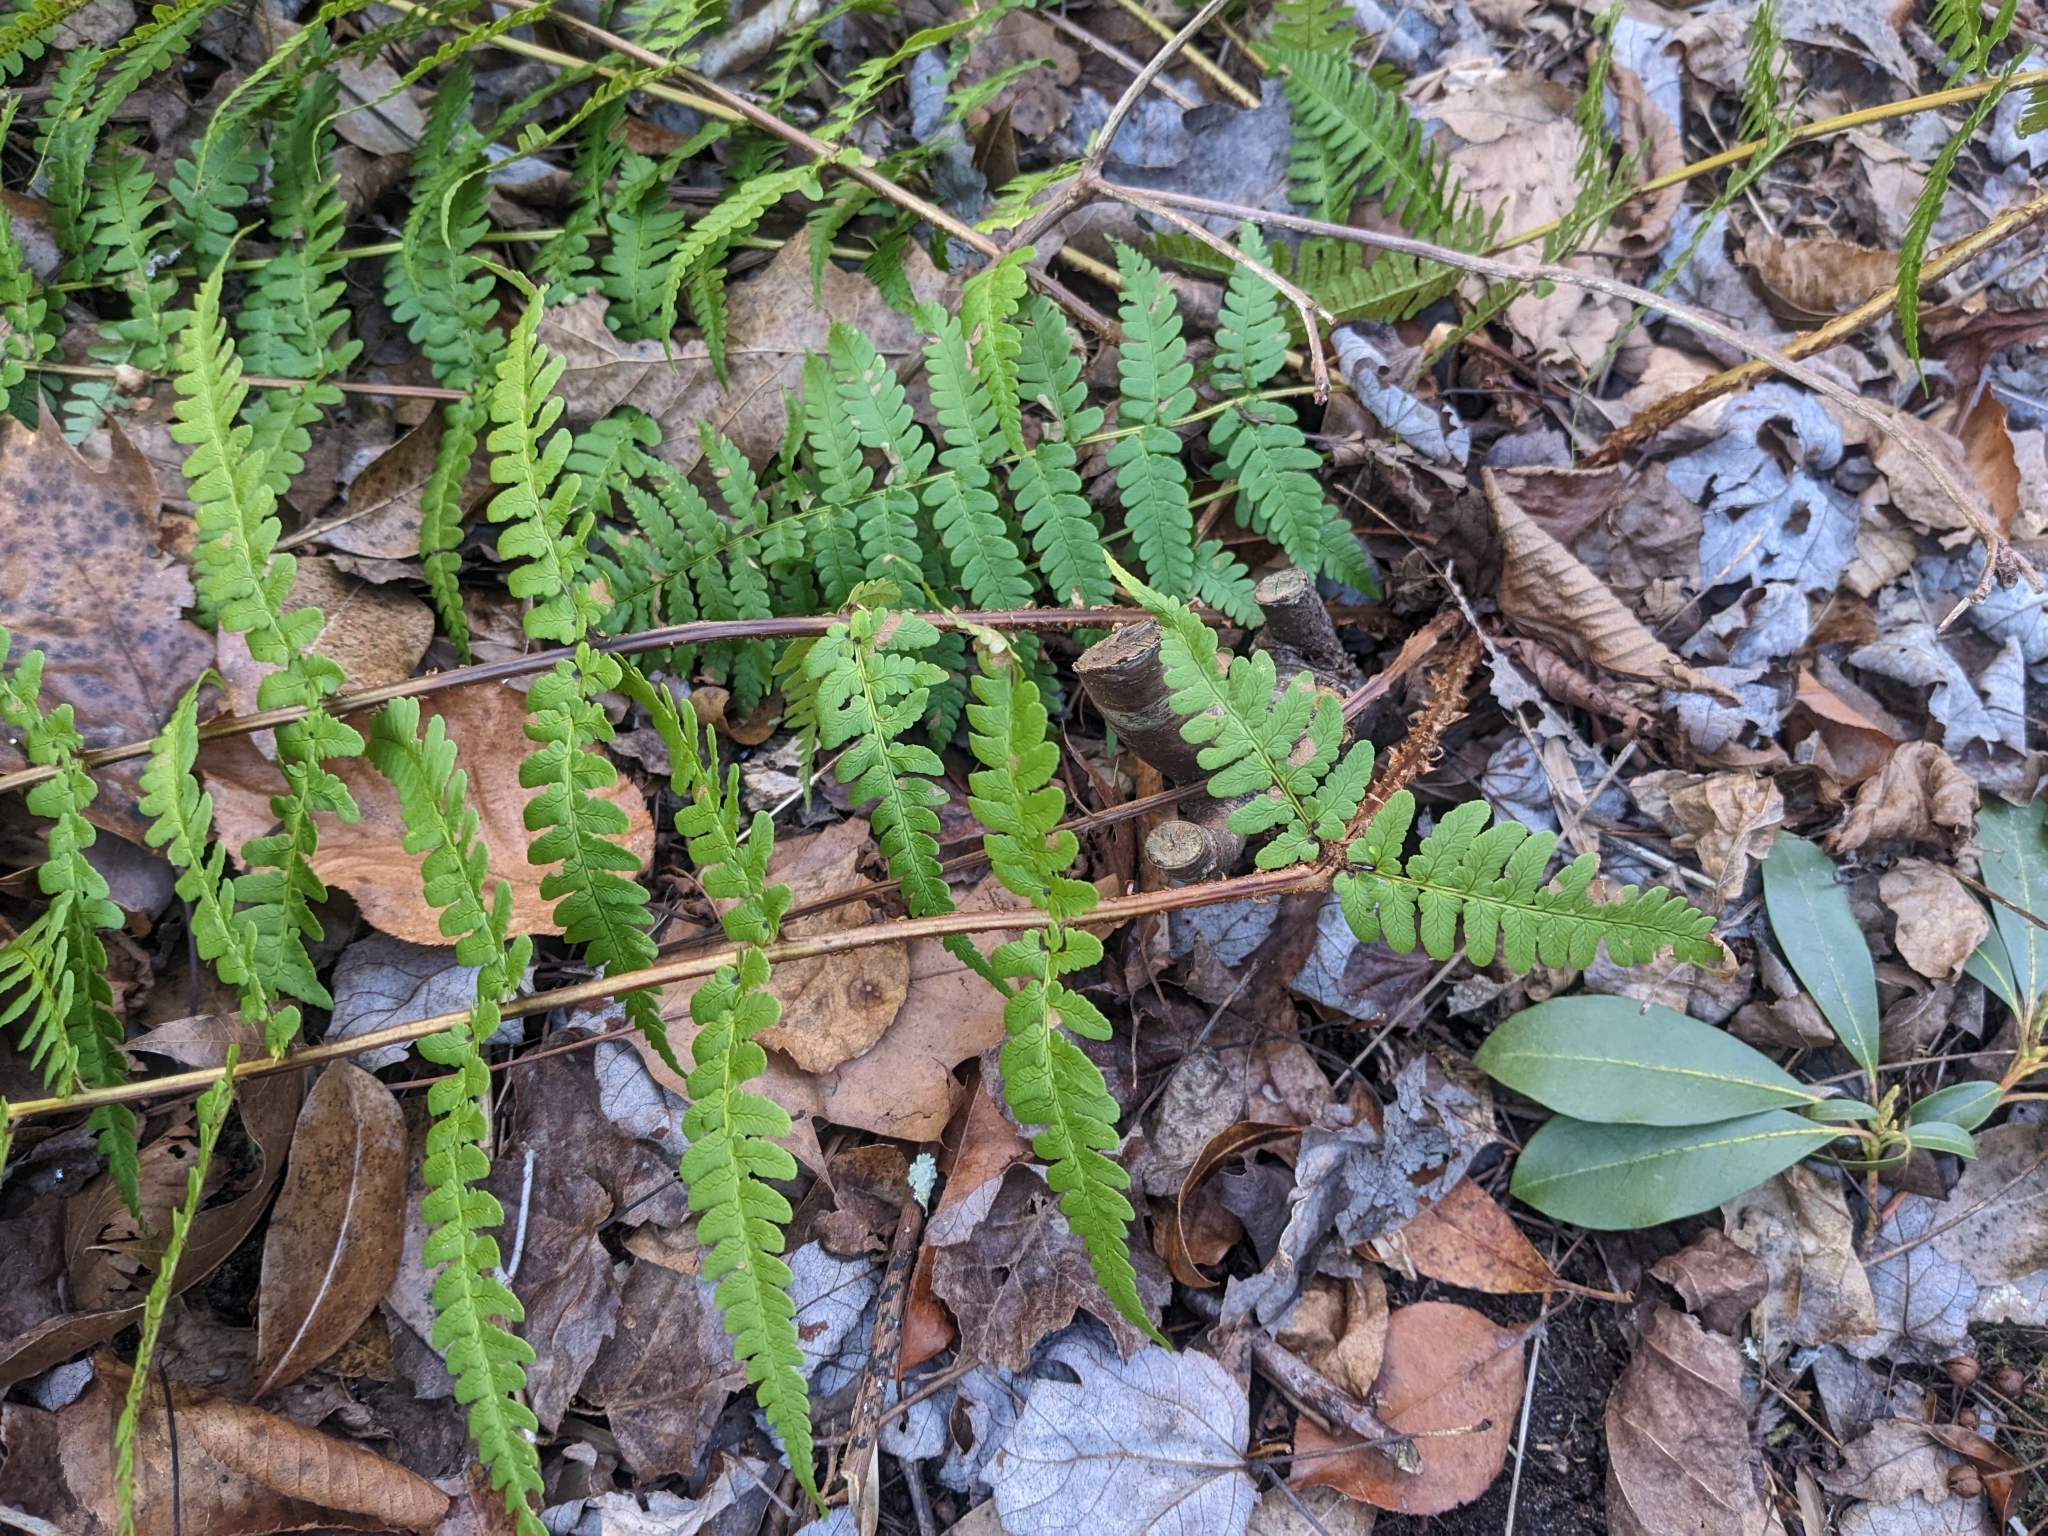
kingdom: Plantae
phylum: Tracheophyta
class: Polypodiopsida
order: Polypodiales
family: Dryopteridaceae
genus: Dryopteris
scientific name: Dryopteris marginalis
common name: Marginal wood fern
